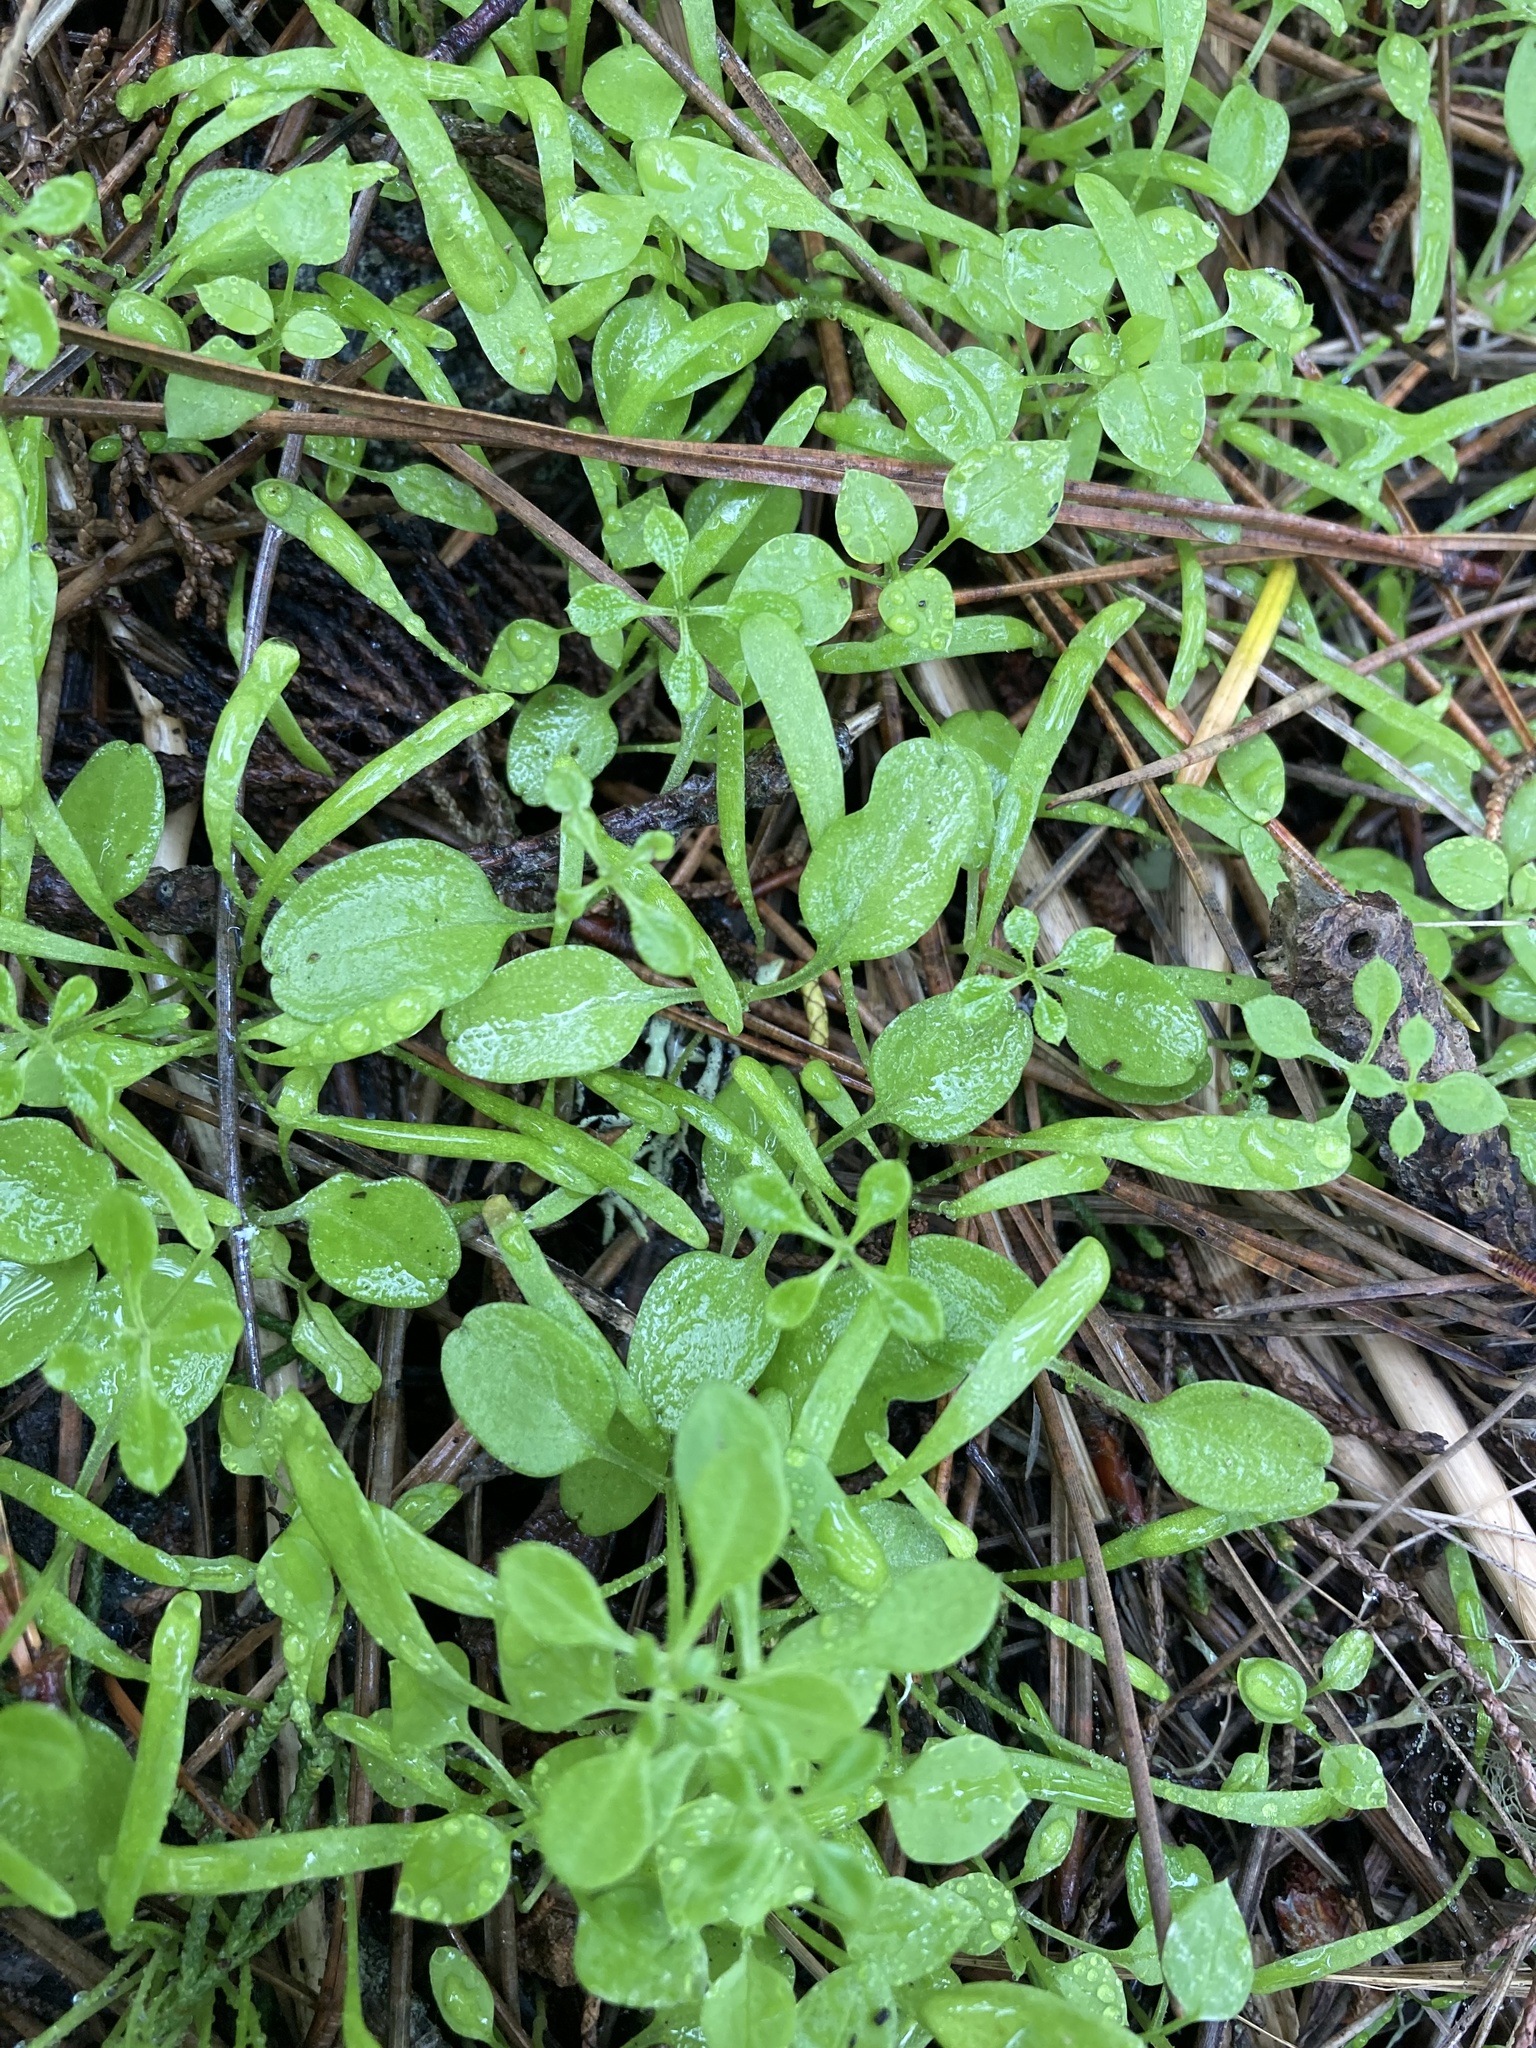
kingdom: Plantae
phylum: Tracheophyta
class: Magnoliopsida
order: Gentianales
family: Rubiaceae
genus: Galium
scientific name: Galium aparine
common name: Cleavers
